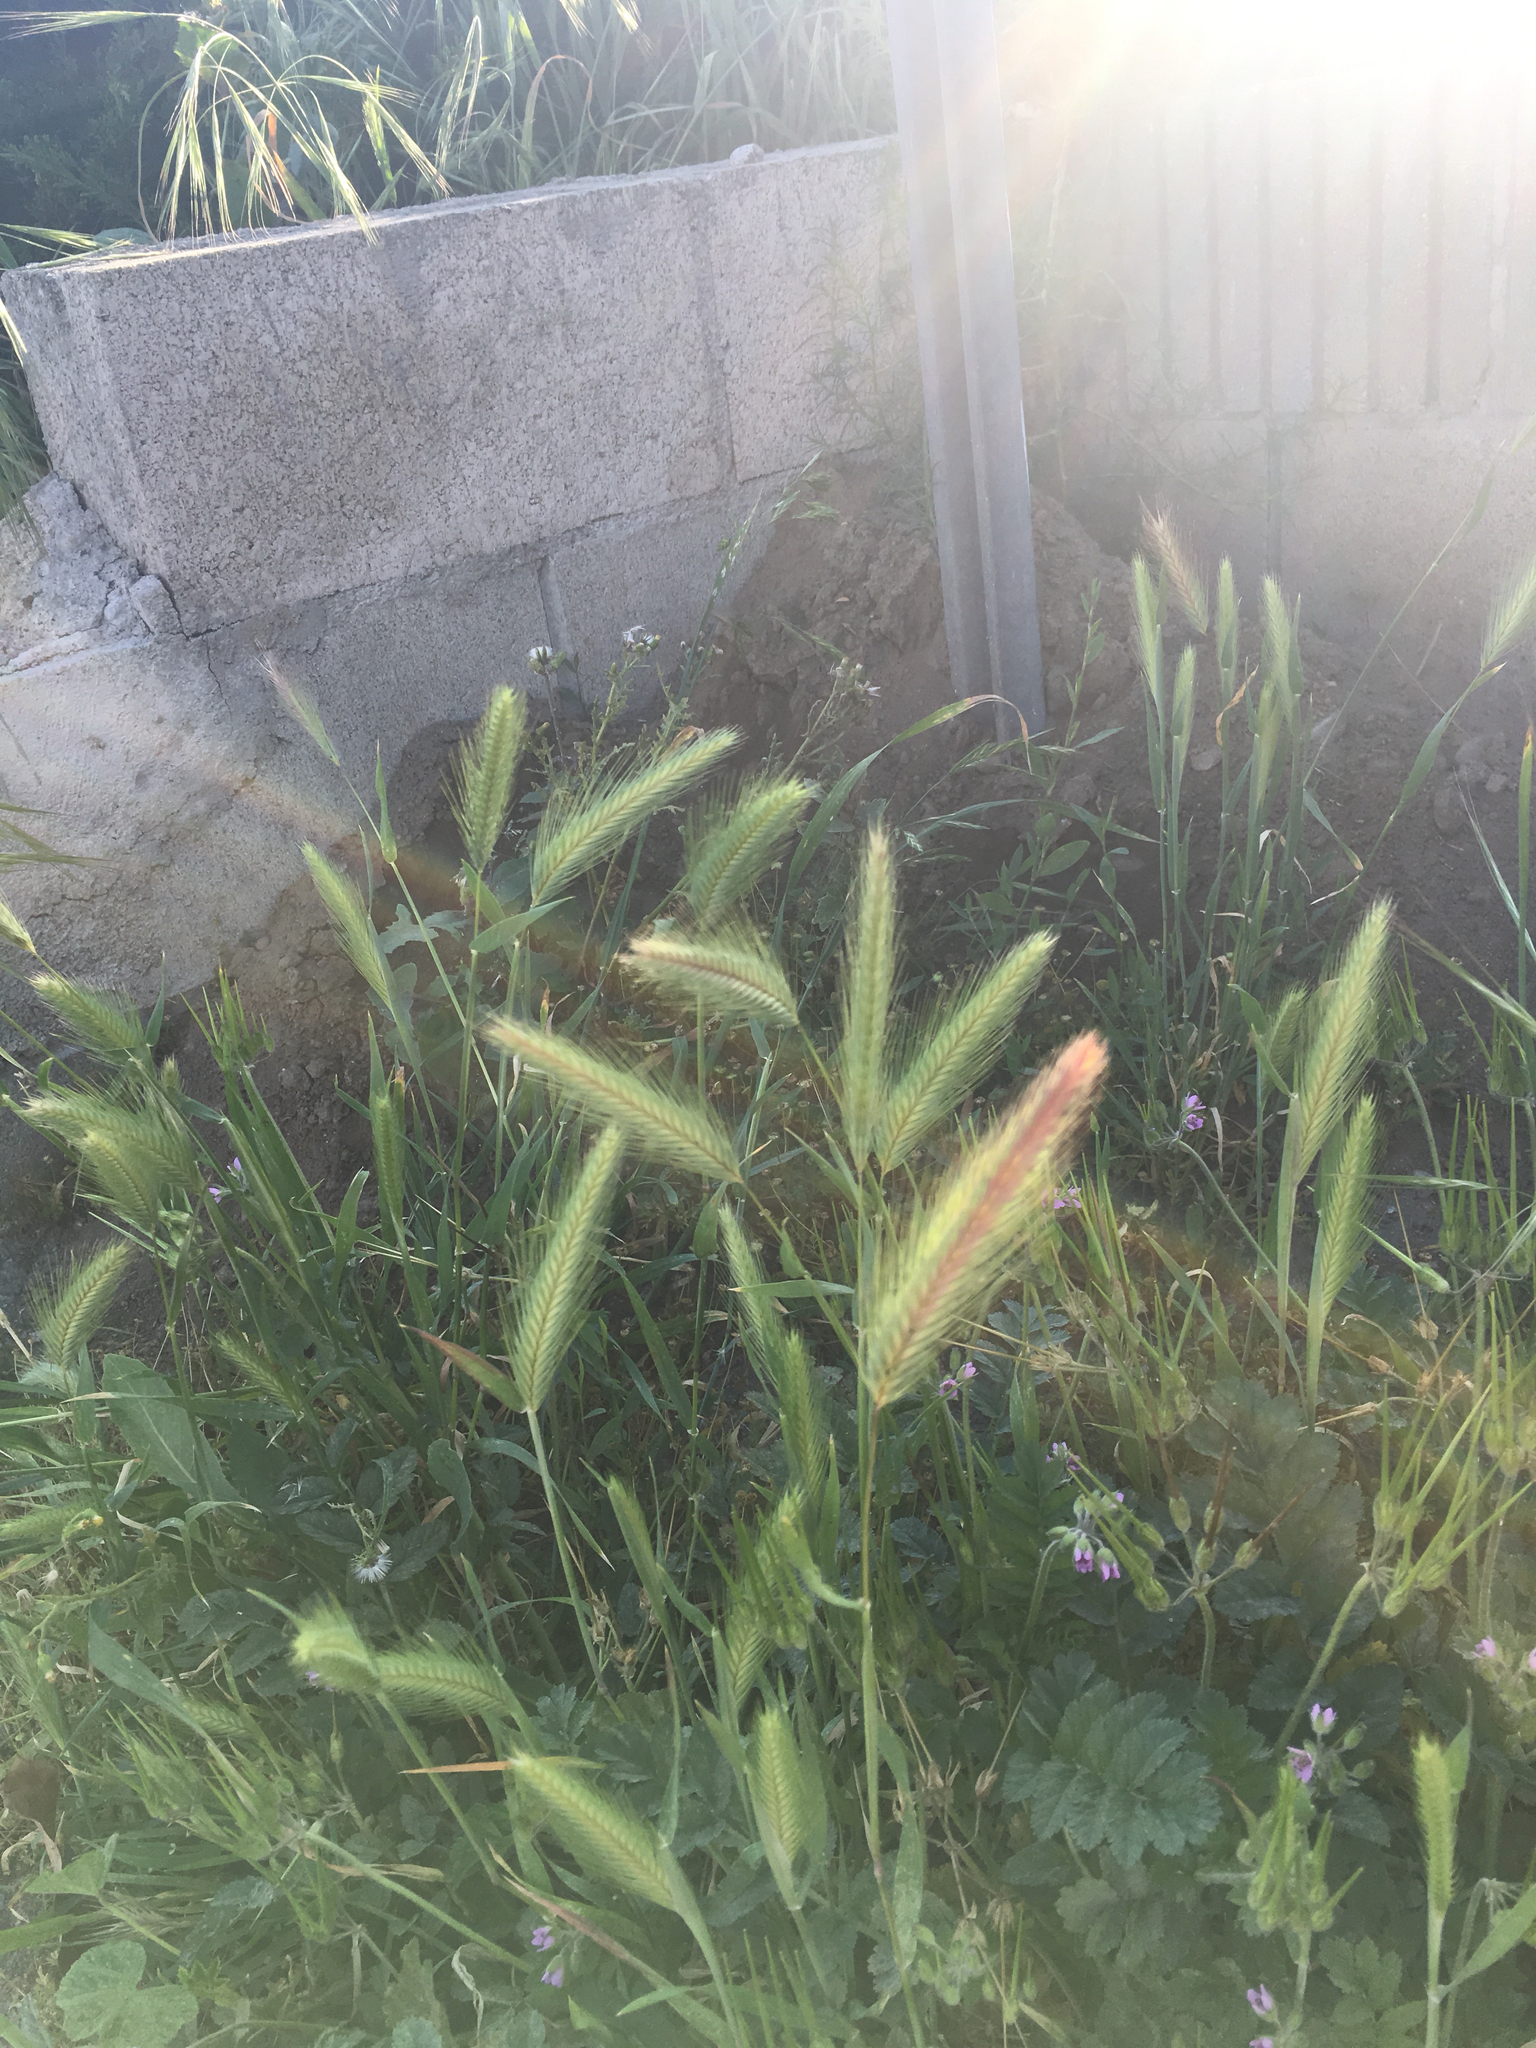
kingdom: Plantae
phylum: Tracheophyta
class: Liliopsida
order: Poales
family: Poaceae
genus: Hordeum
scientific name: Hordeum murinum
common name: Wall barley
